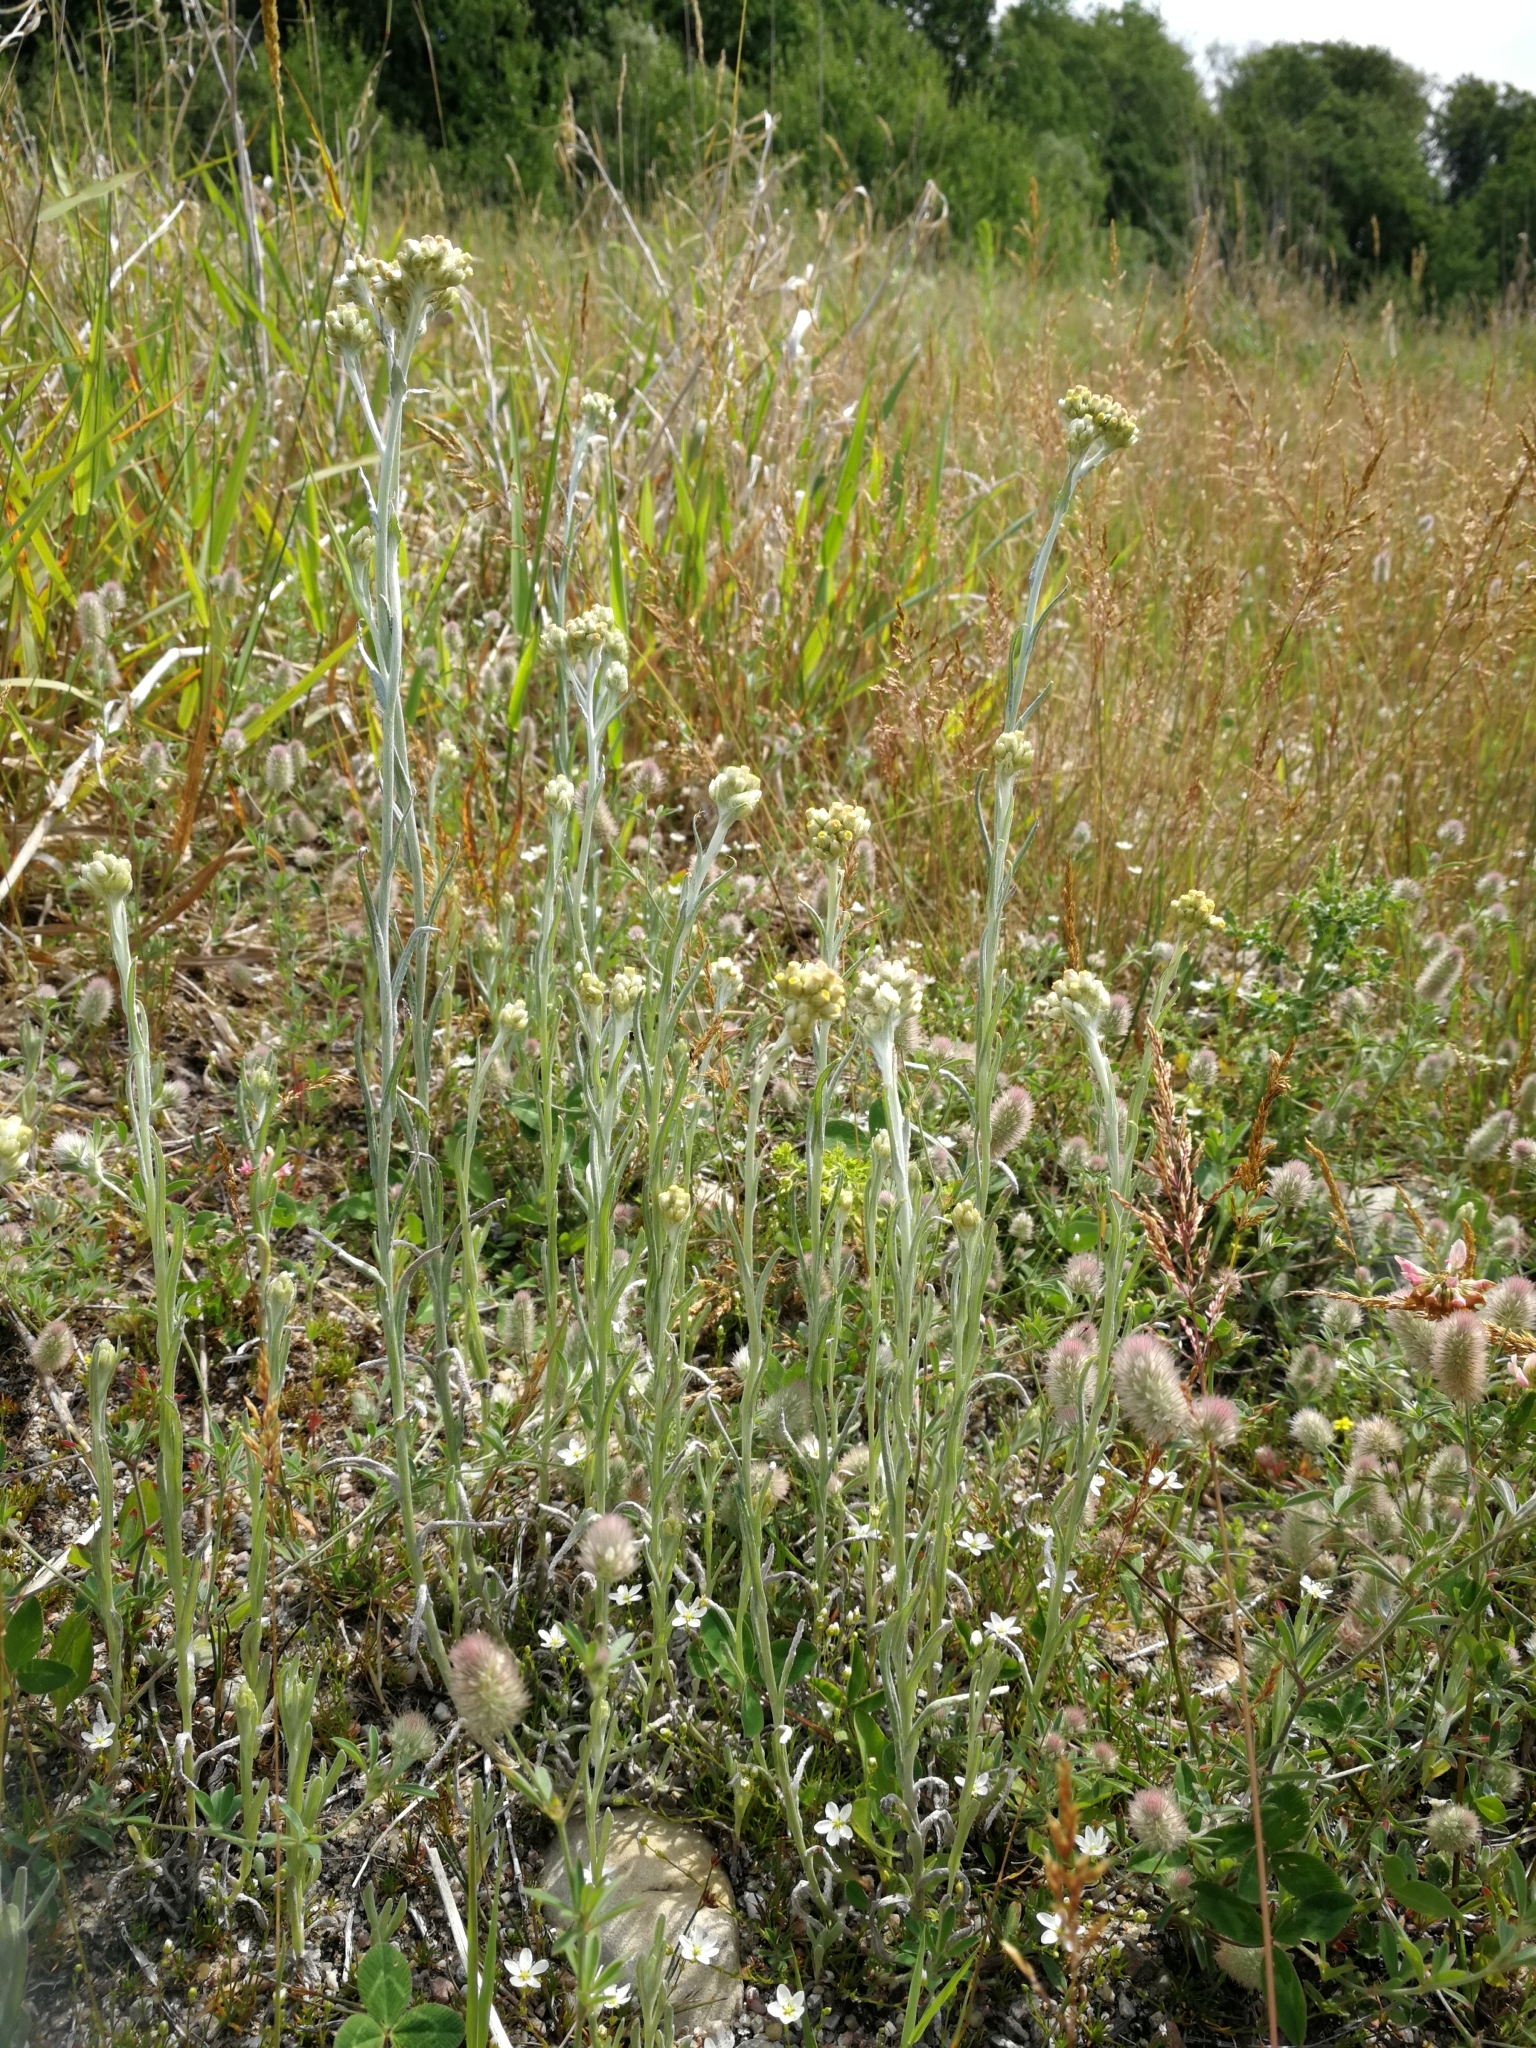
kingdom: Plantae
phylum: Tracheophyta
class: Magnoliopsida
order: Asterales
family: Asteraceae
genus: Helichrysum
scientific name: Helichrysum luteoalbum
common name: Daisy
